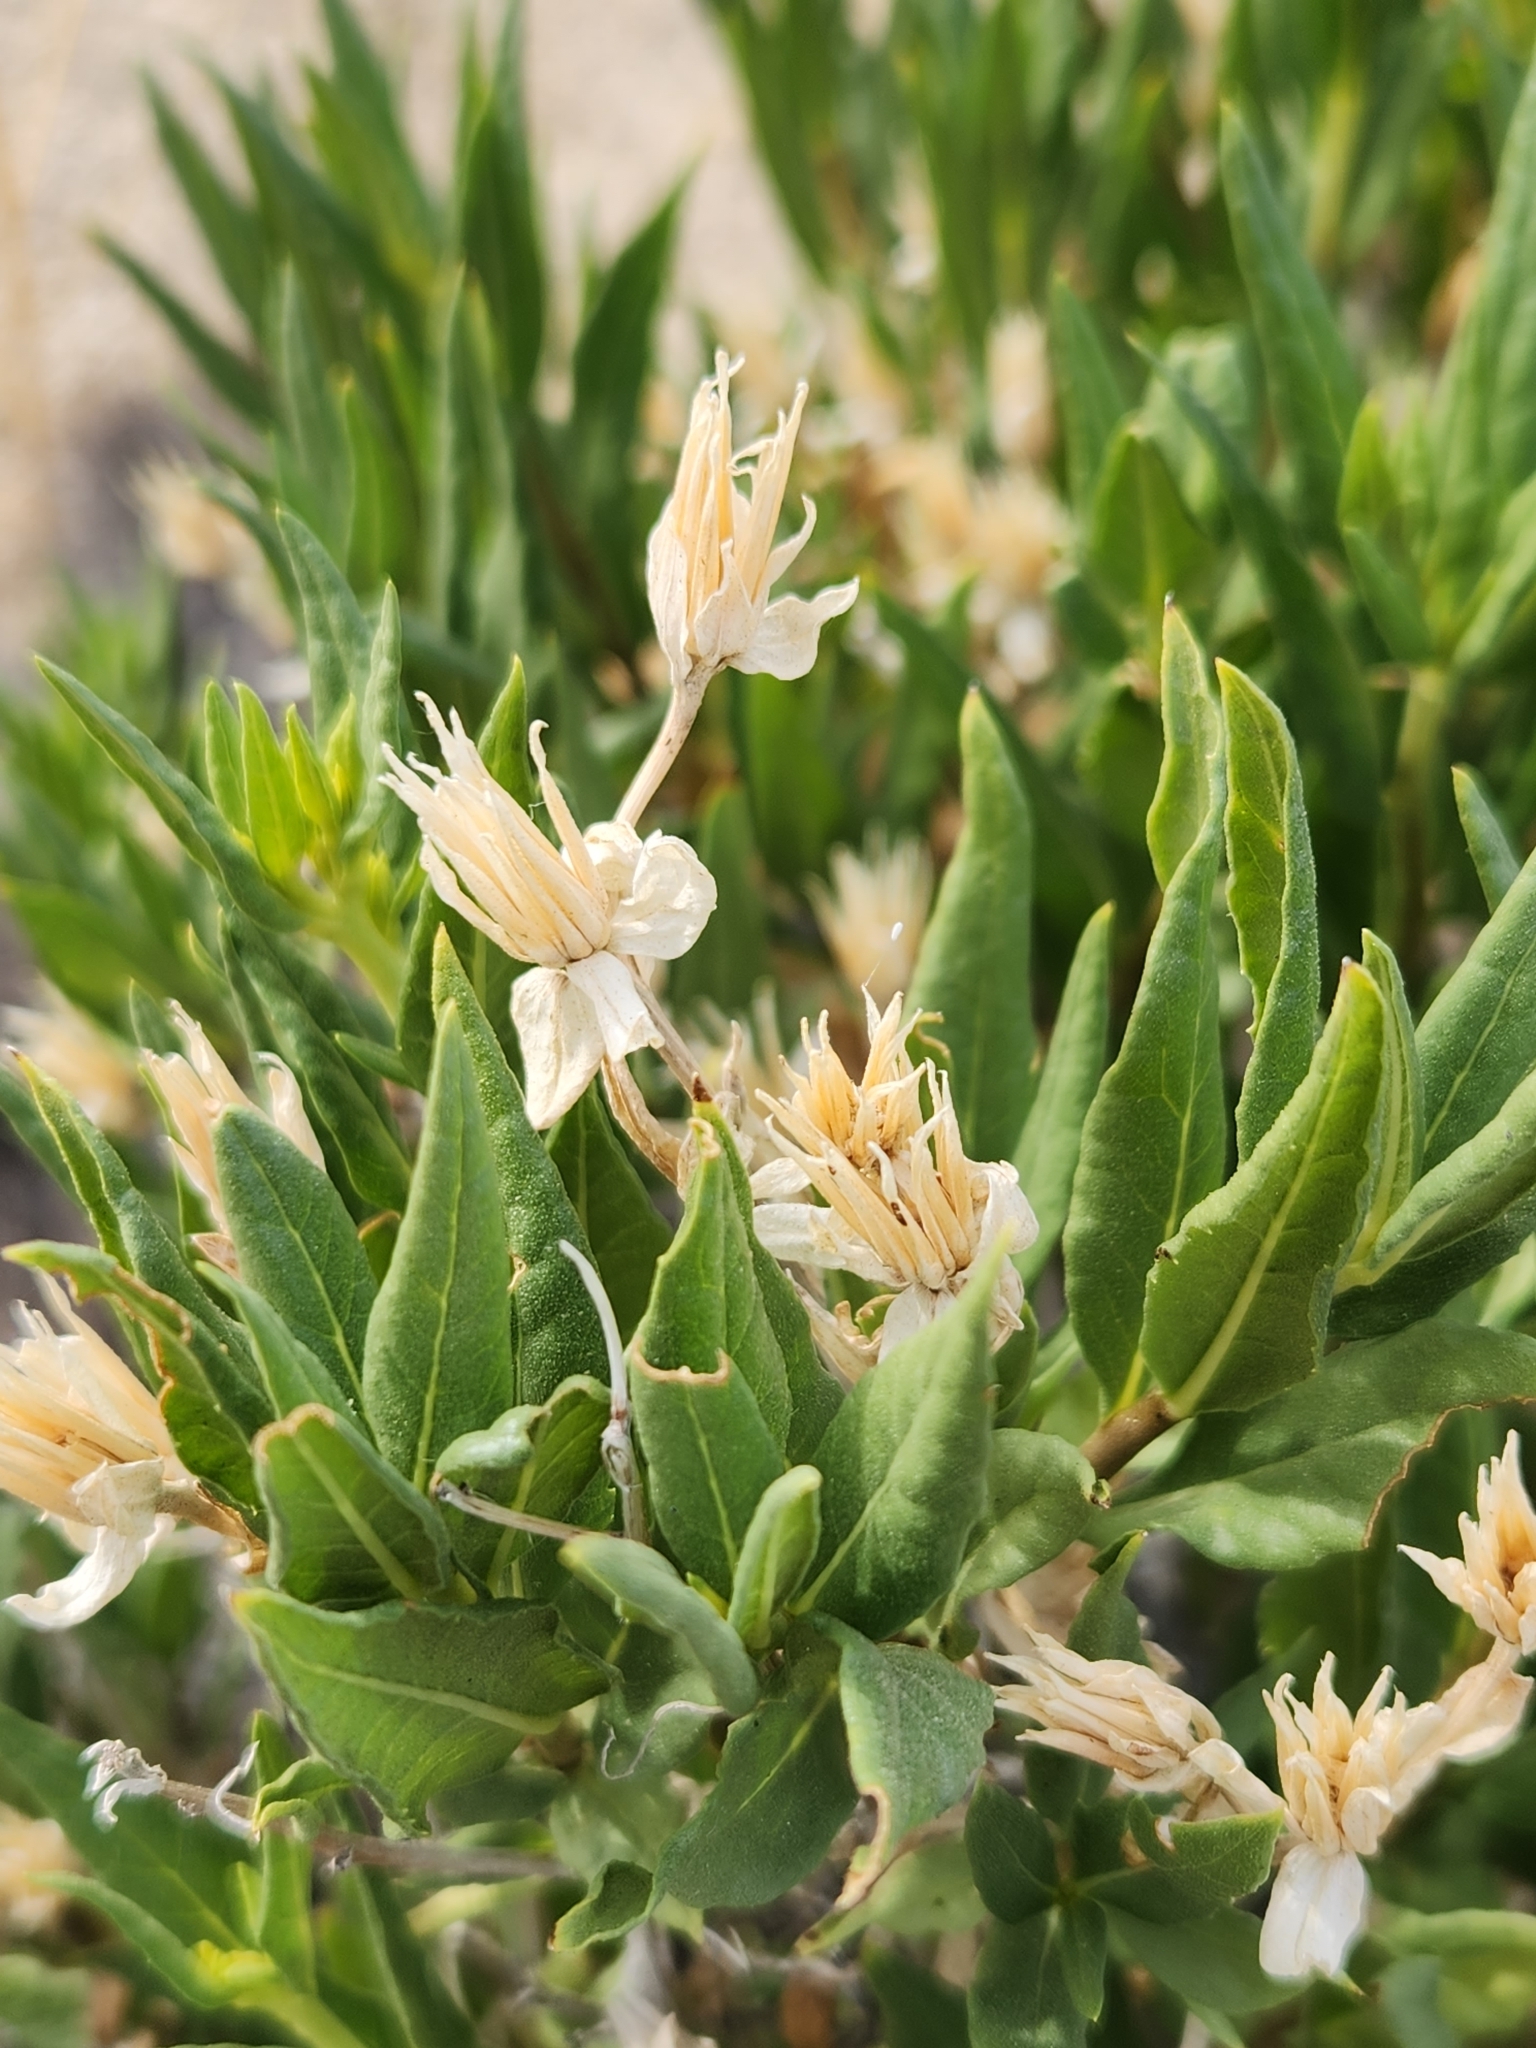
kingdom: Plantae
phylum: Tracheophyta
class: Magnoliopsida
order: Asterales
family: Asteraceae
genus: Trixis
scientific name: Trixis californica
